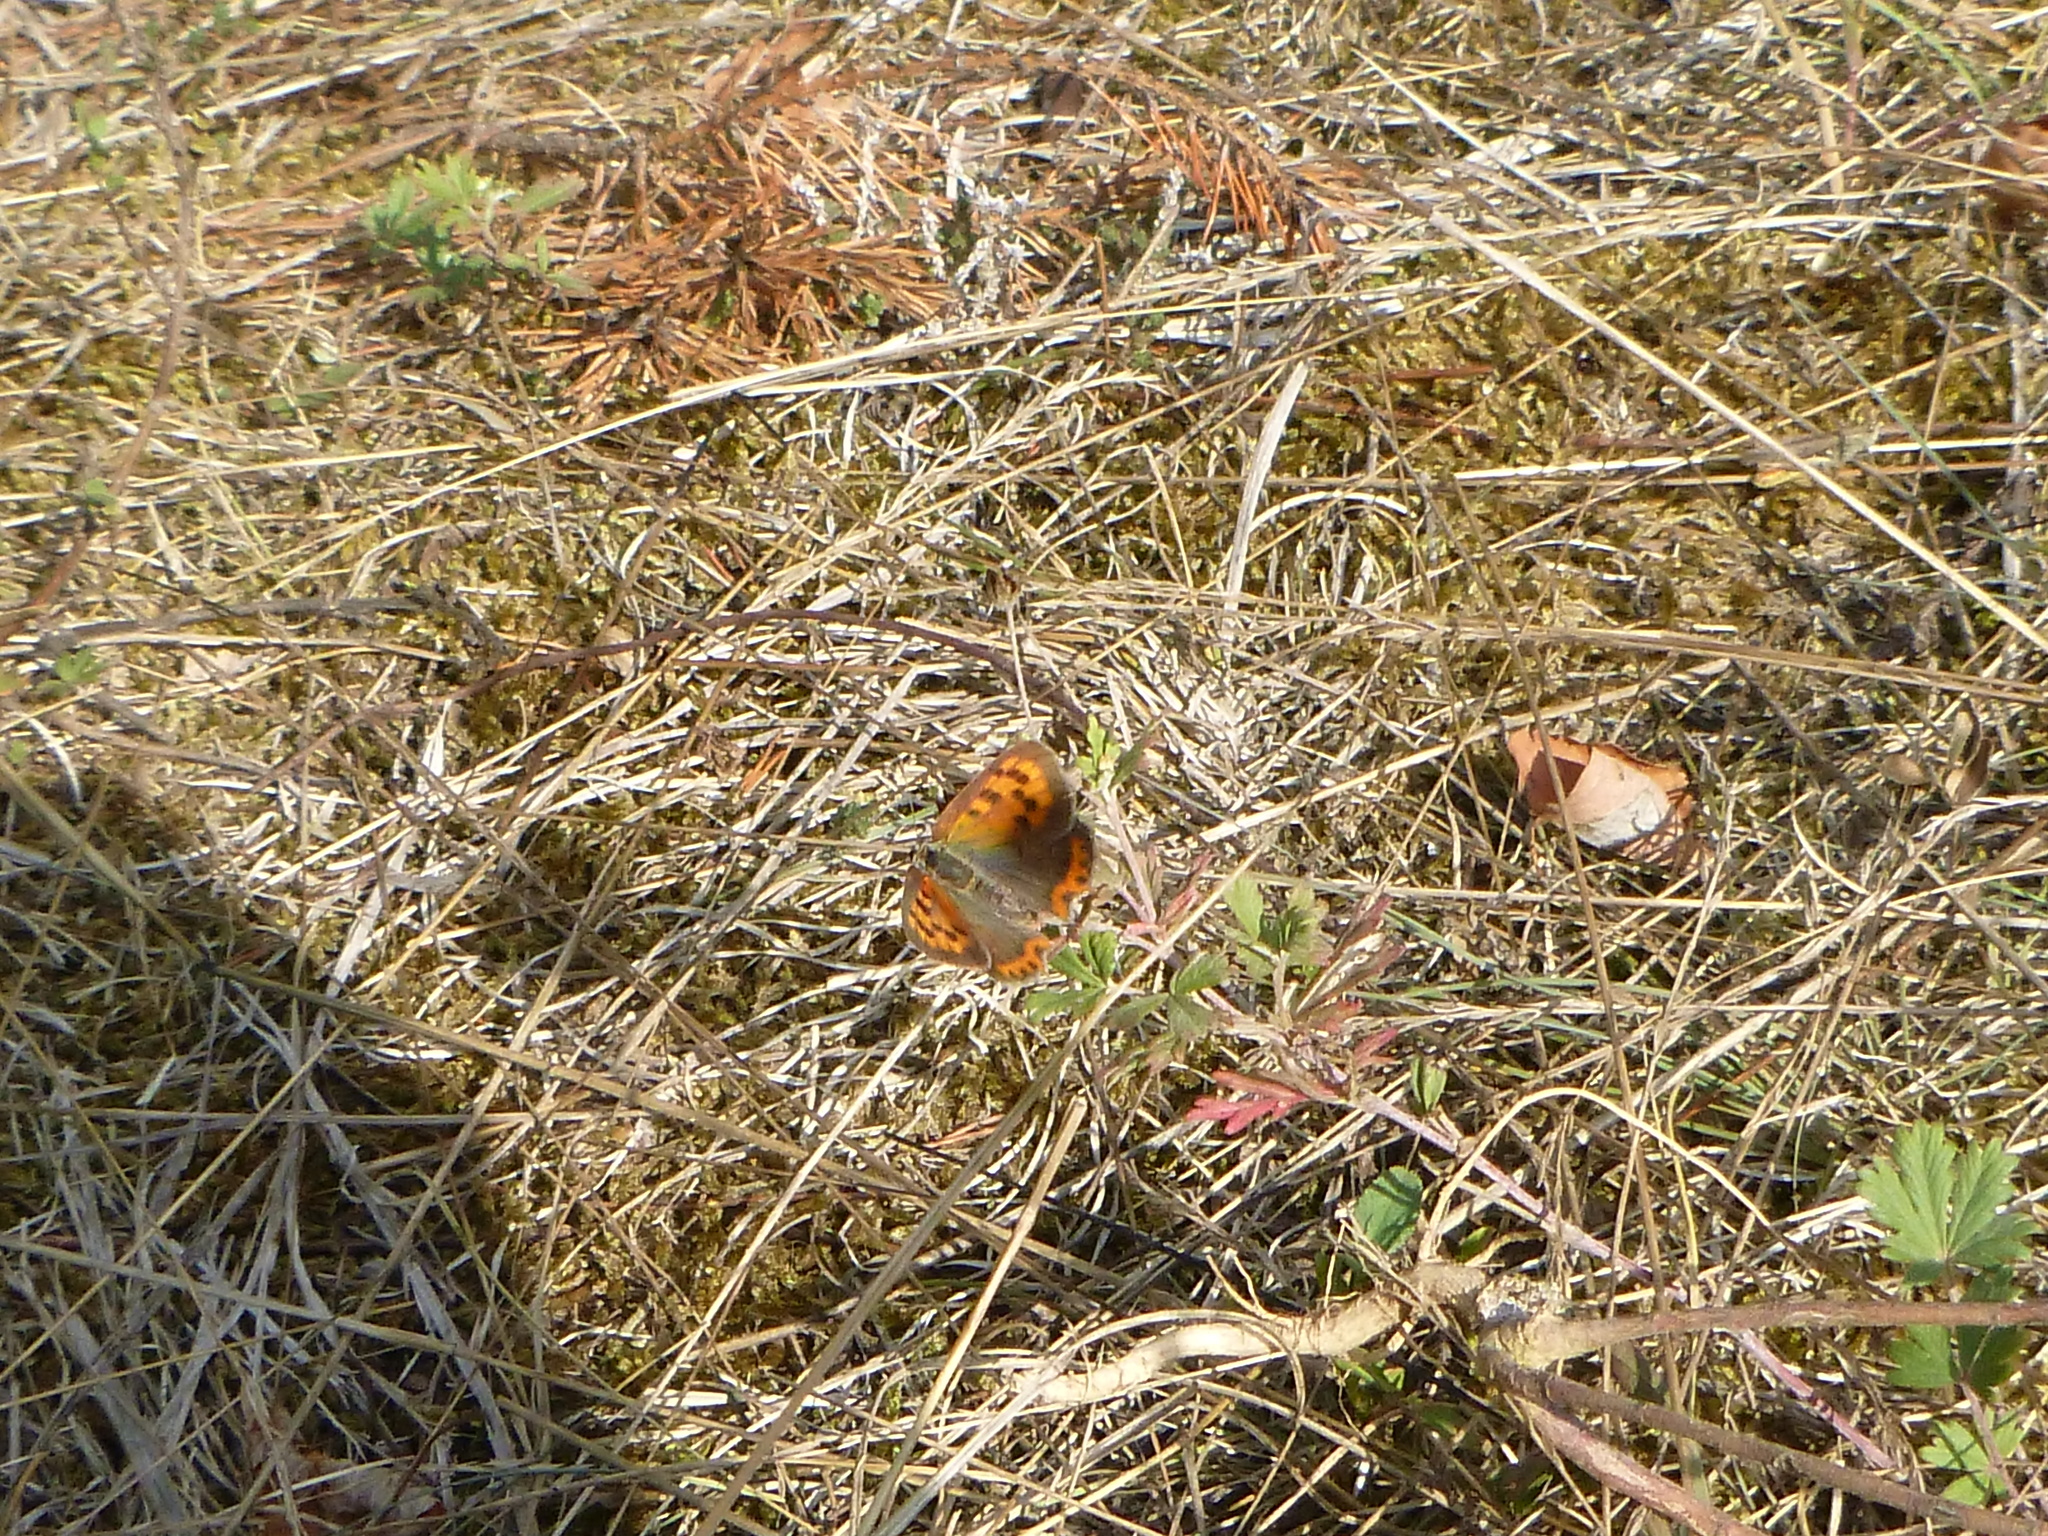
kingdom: Animalia
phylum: Arthropoda
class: Insecta
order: Lepidoptera
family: Lycaenidae
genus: Lycaena
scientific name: Lycaena phlaeas
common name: Small copper
